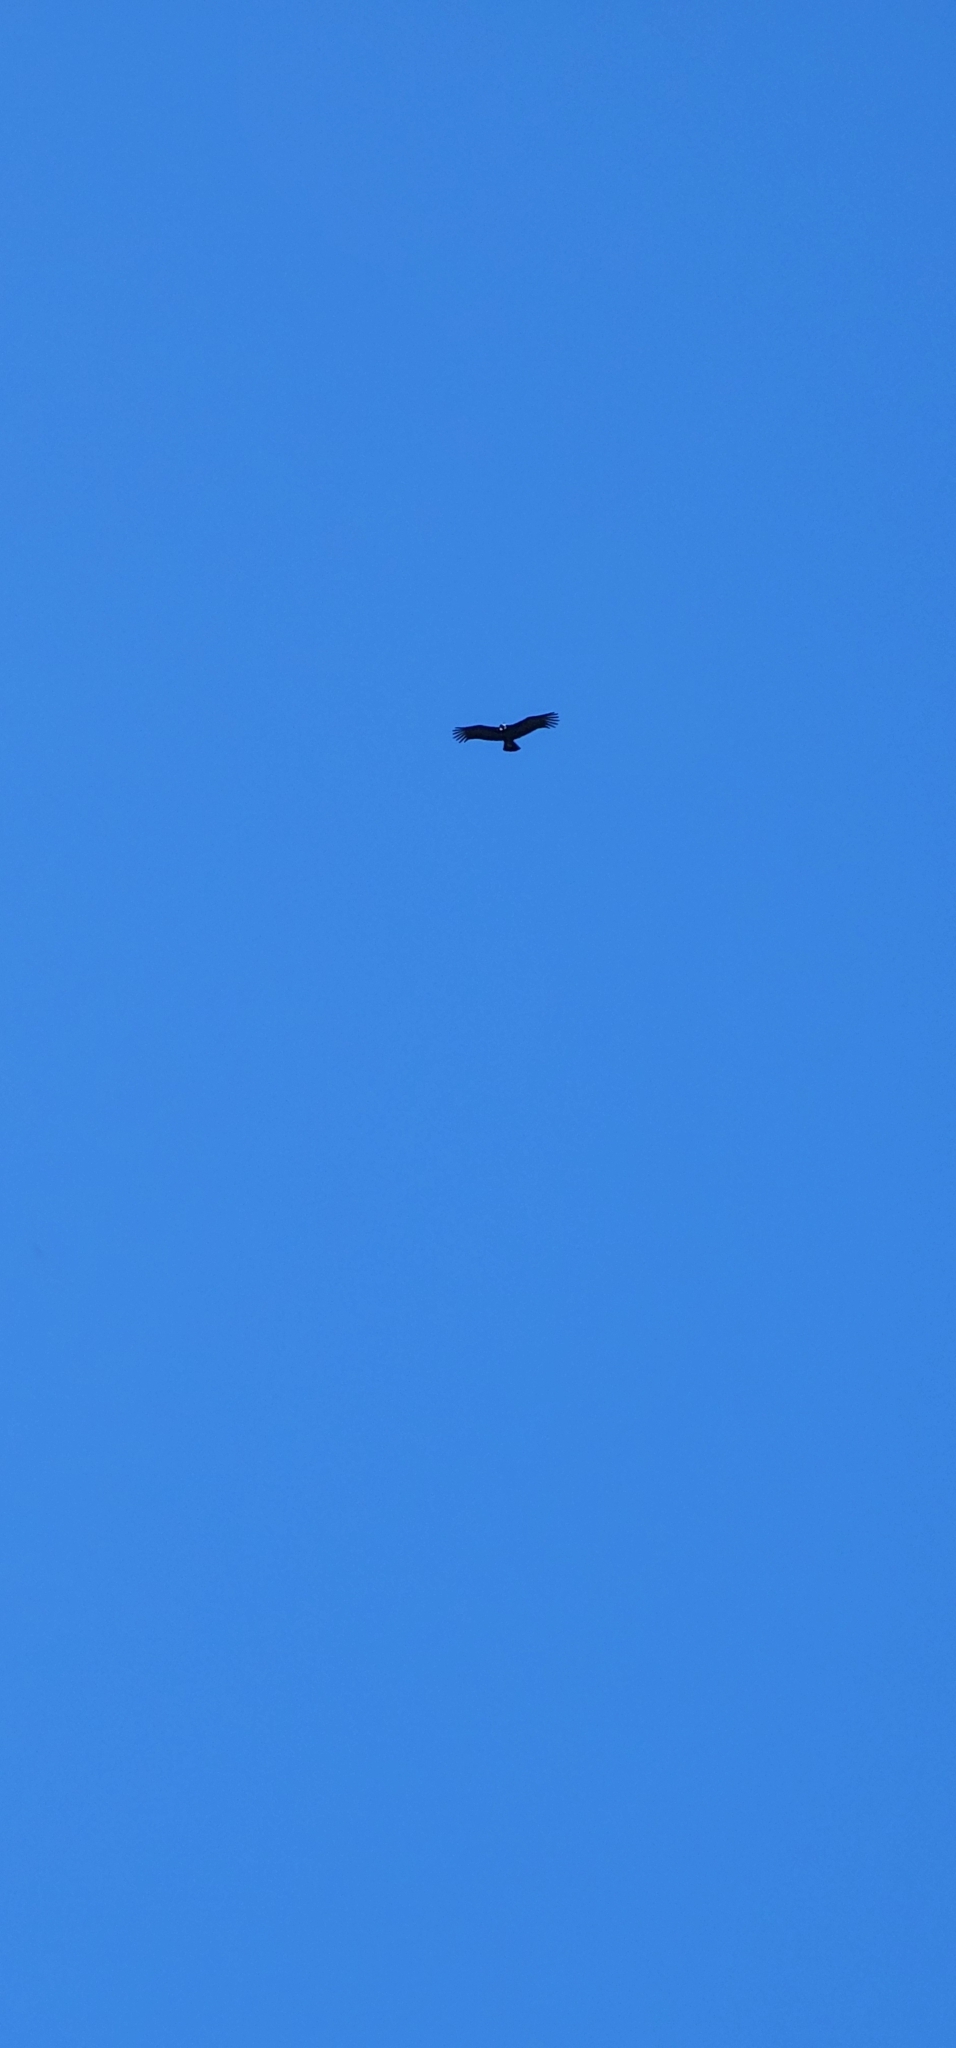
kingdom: Animalia
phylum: Chordata
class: Aves
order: Accipitriformes
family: Cathartidae
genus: Vultur
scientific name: Vultur gryphus
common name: Andean condor
